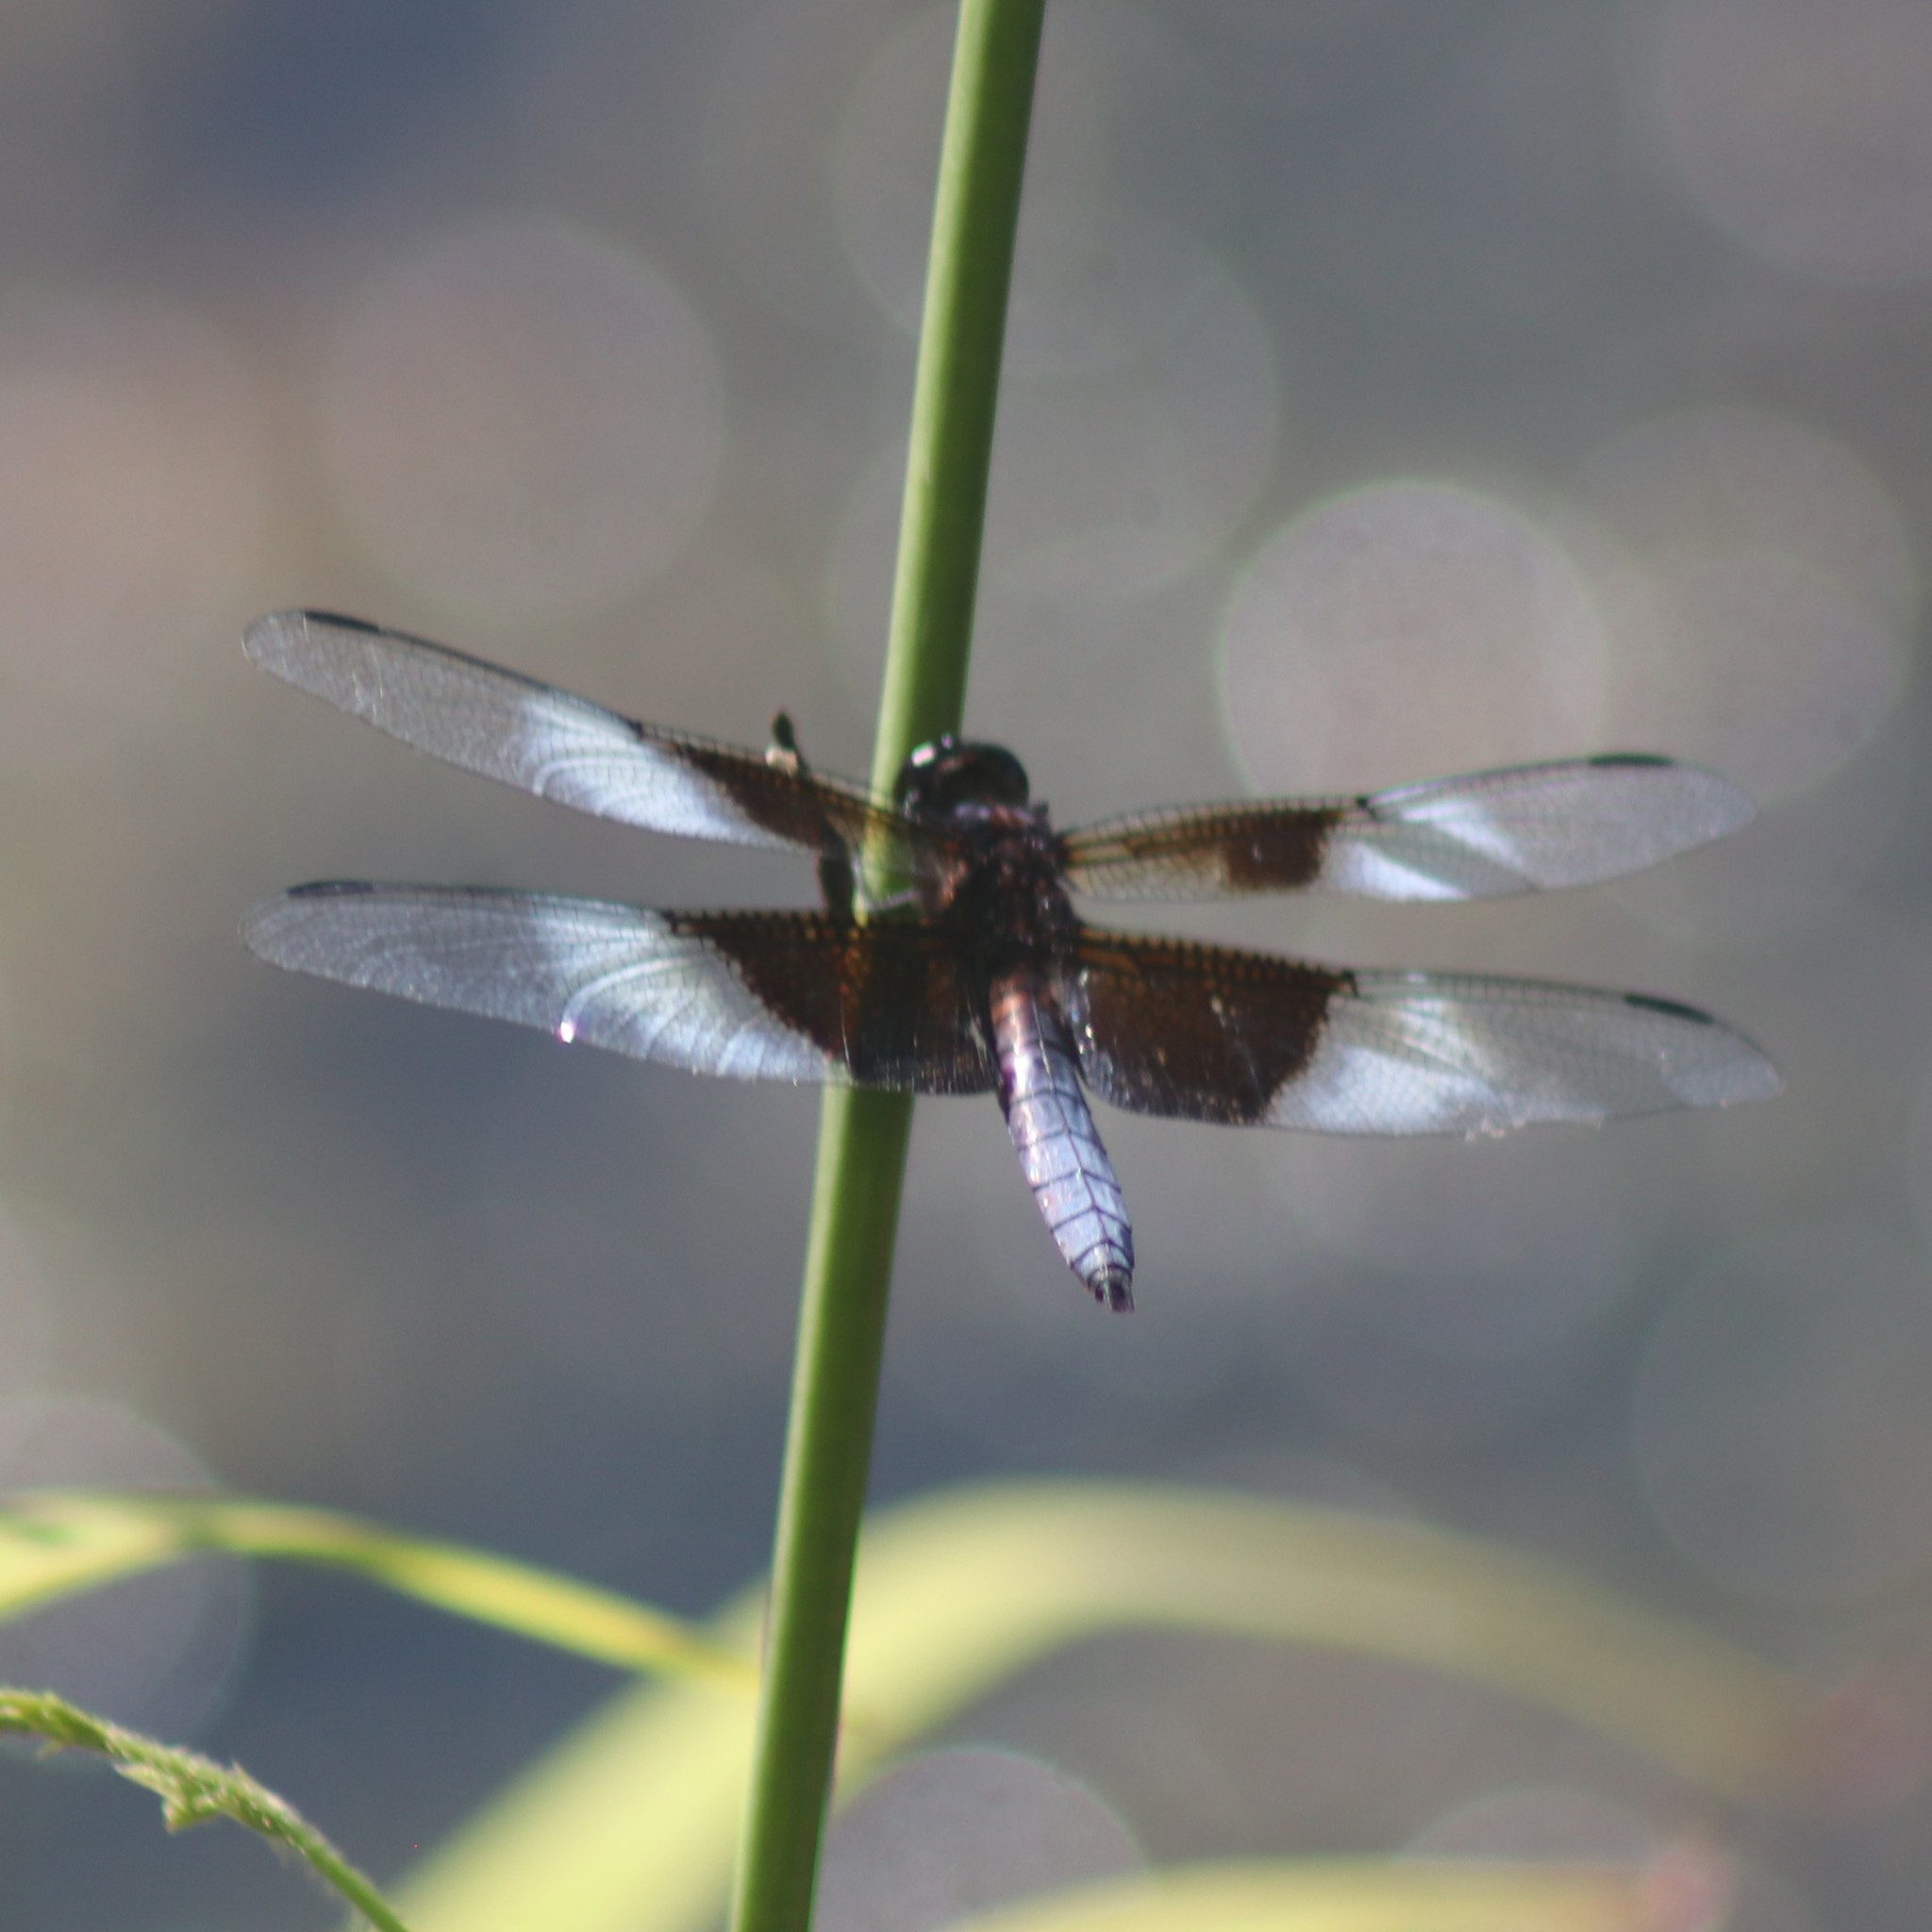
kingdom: Animalia
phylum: Arthropoda
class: Insecta
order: Odonata
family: Libellulidae
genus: Libellula
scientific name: Libellula luctuosa
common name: Widow skimmer
